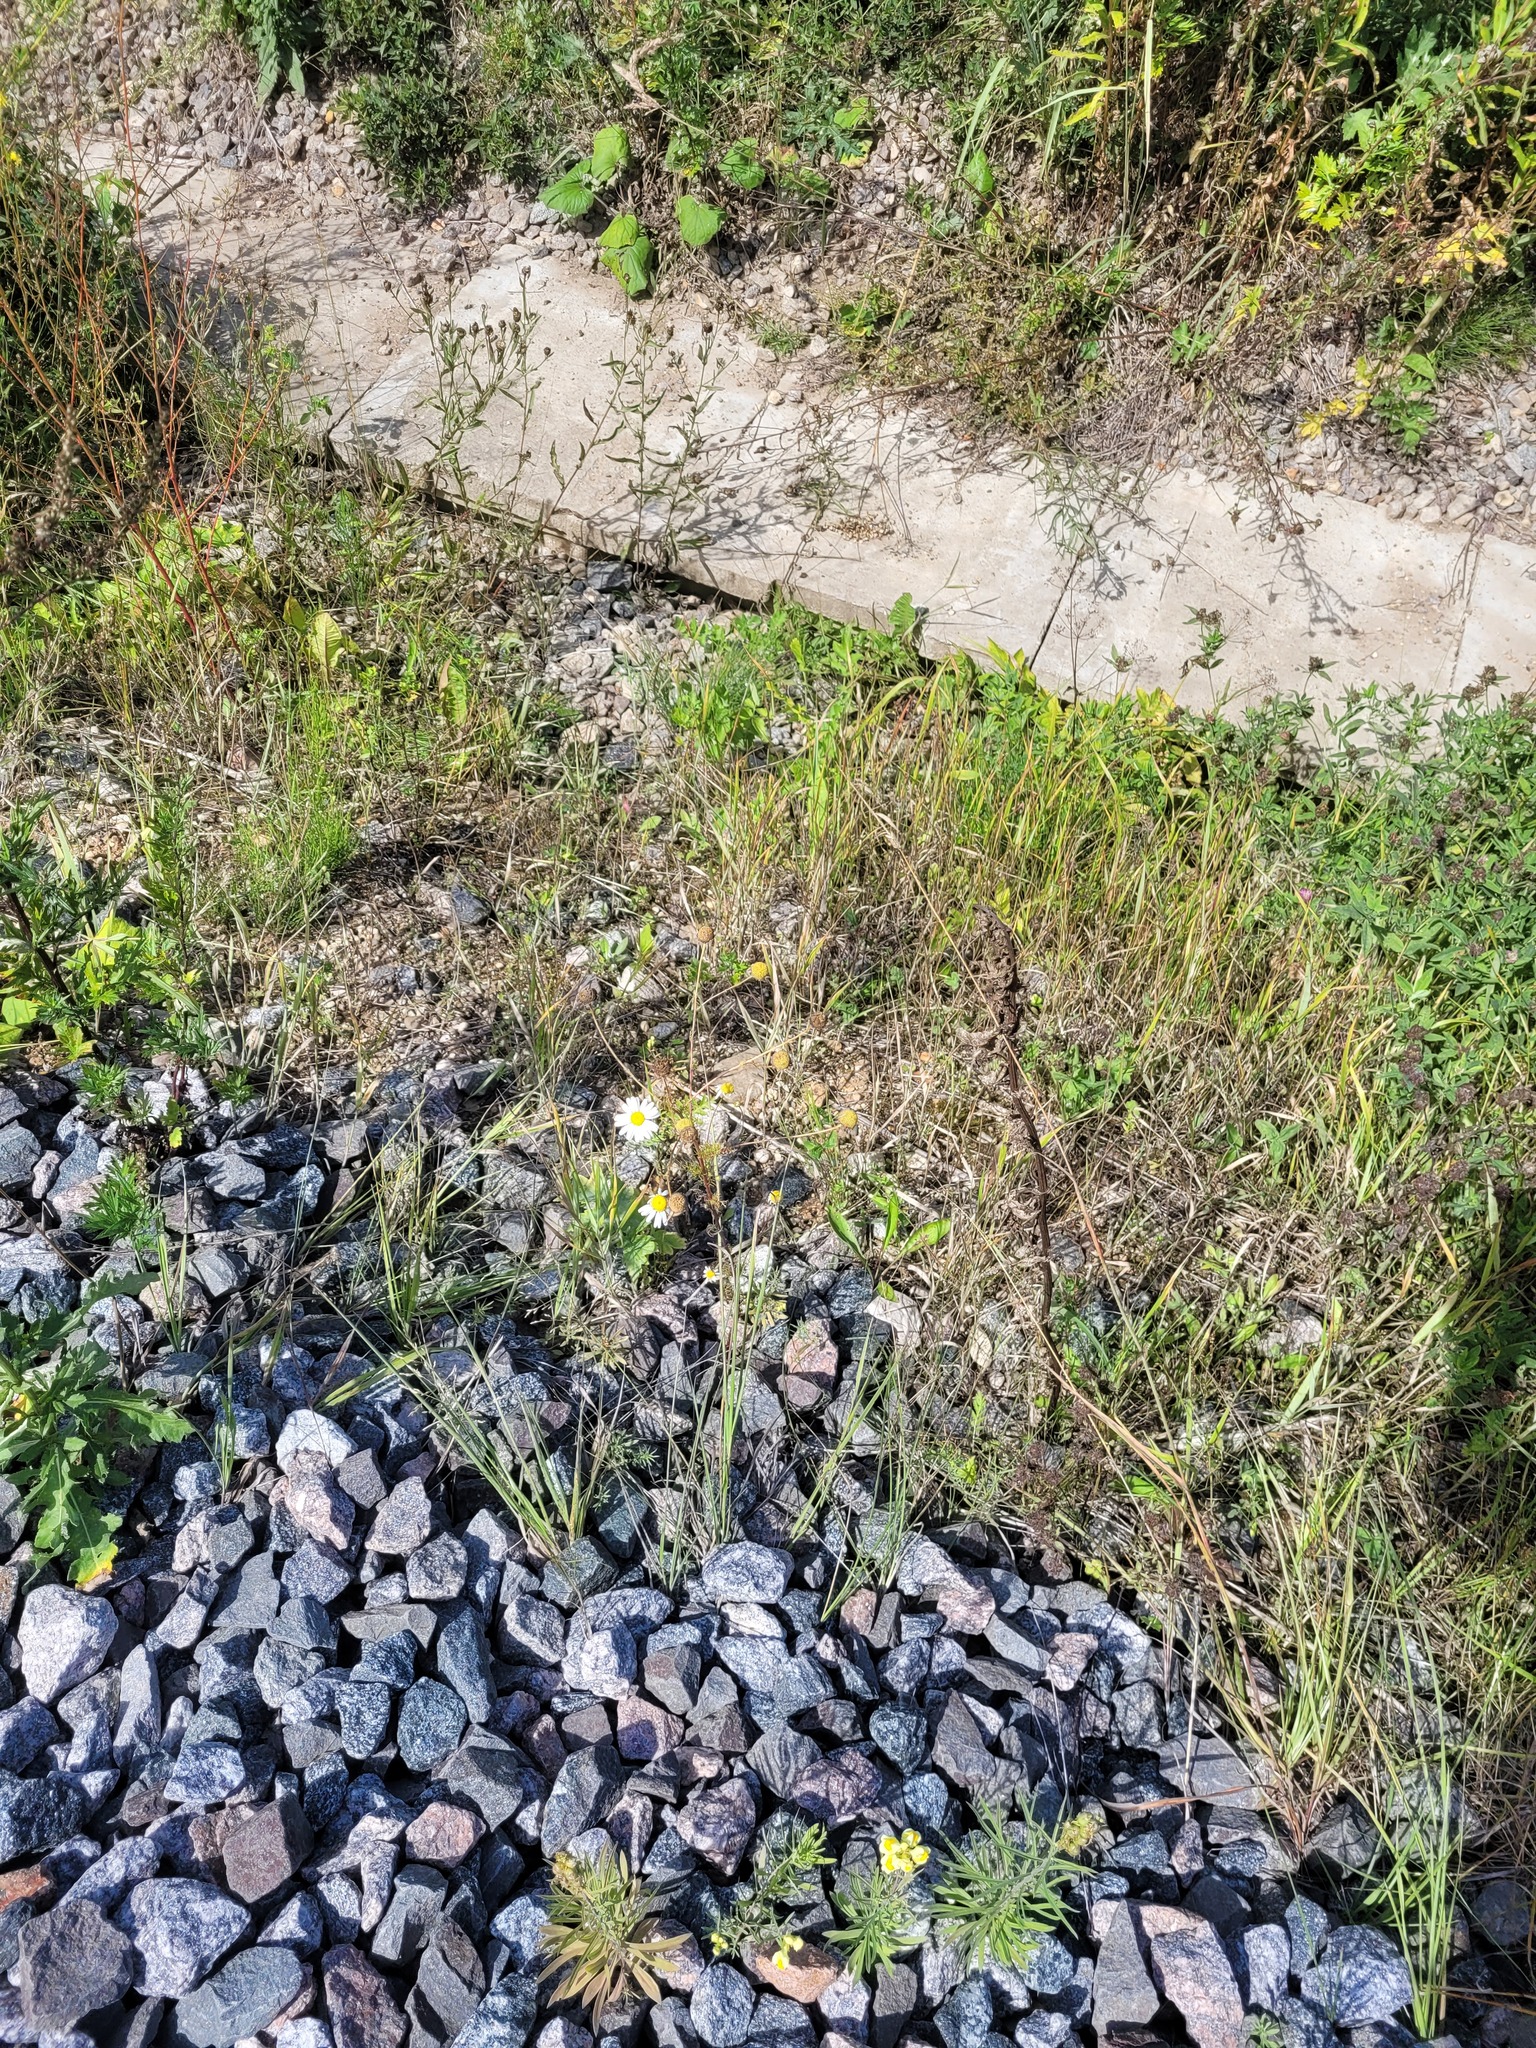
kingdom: Plantae
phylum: Tracheophyta
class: Magnoliopsida
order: Asterales
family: Asteraceae
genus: Tripleurospermum
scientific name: Tripleurospermum inodorum
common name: Scentless mayweed
